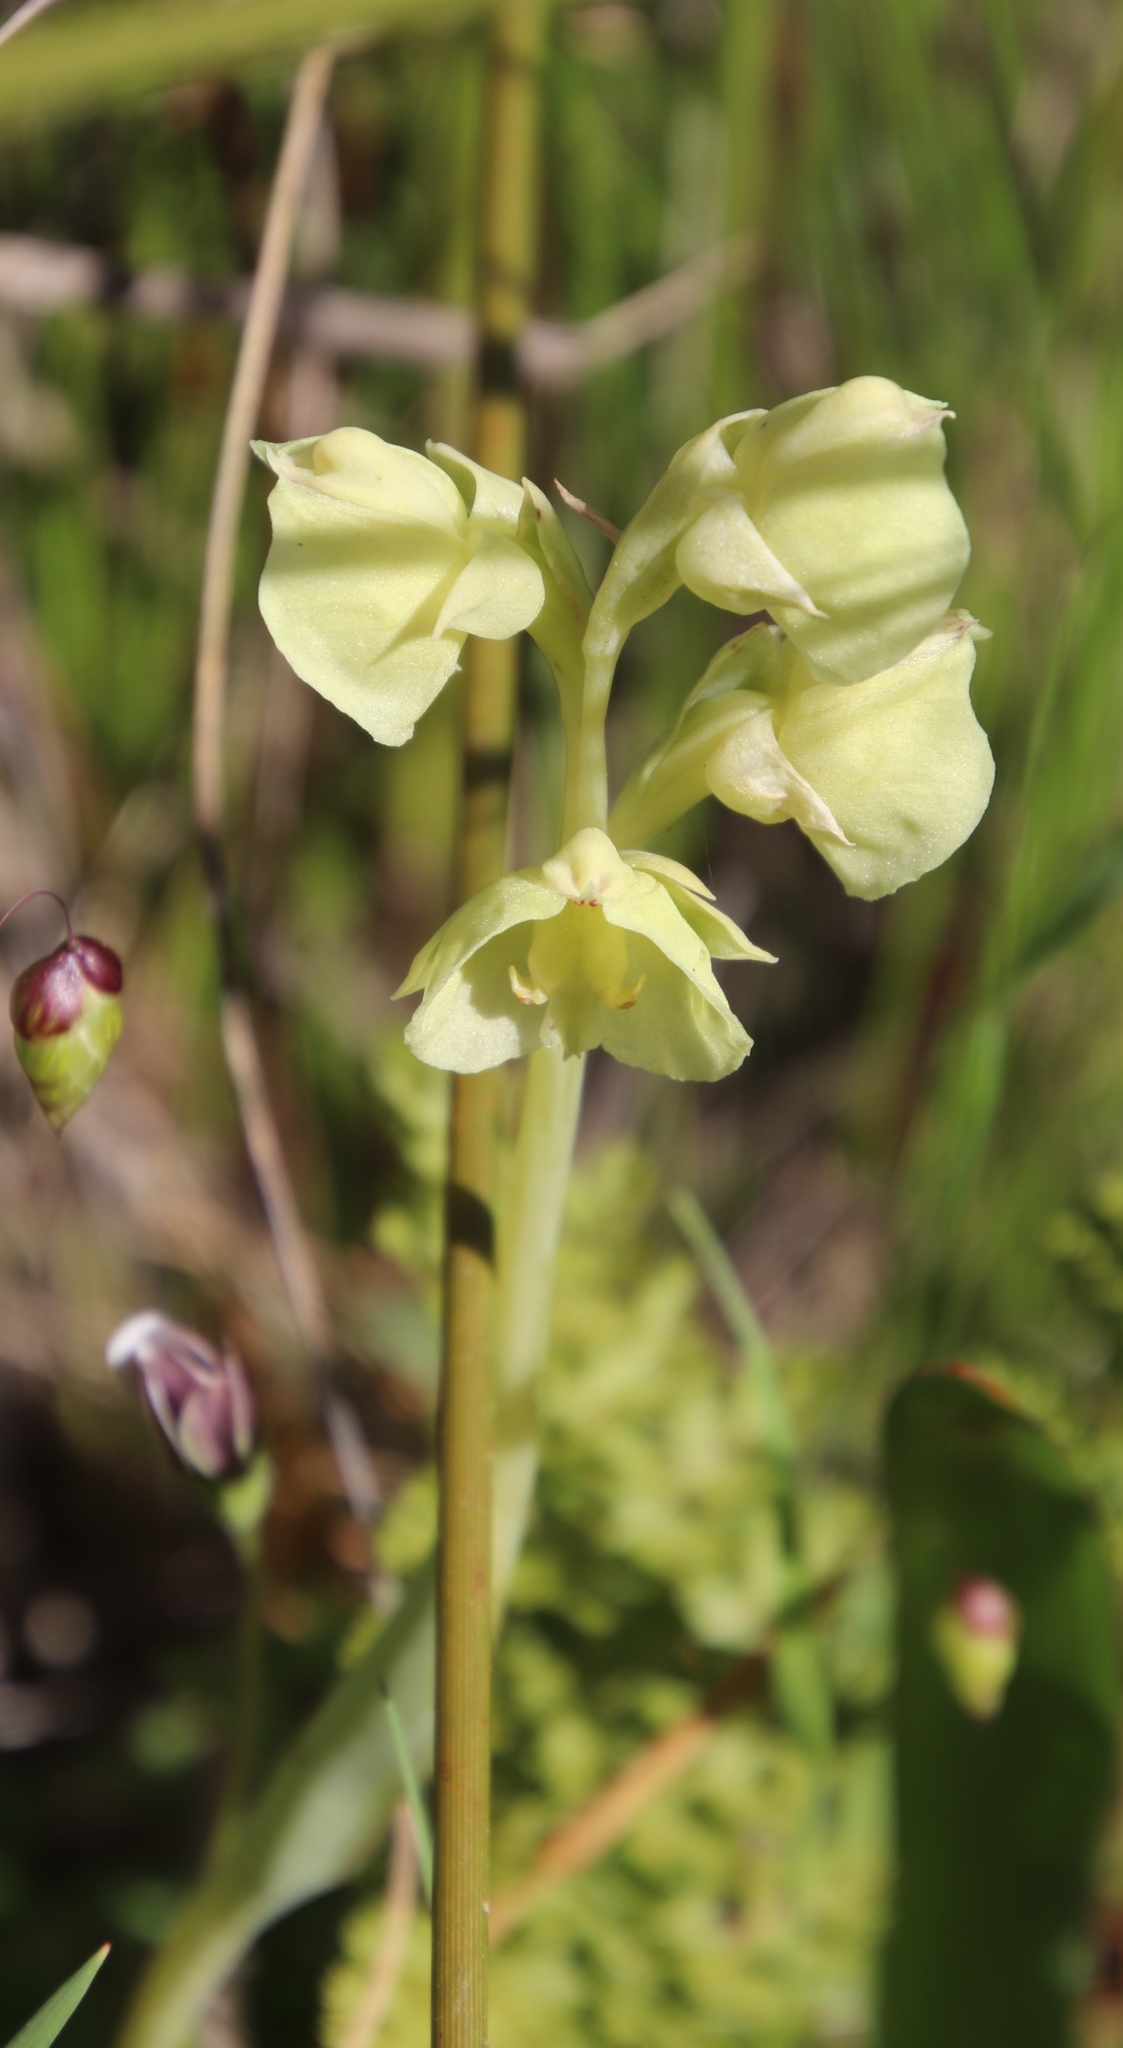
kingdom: Plantae
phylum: Tracheophyta
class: Liliopsida
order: Asparagales
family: Orchidaceae
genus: Pterygodium
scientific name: Pterygodium catholicum
